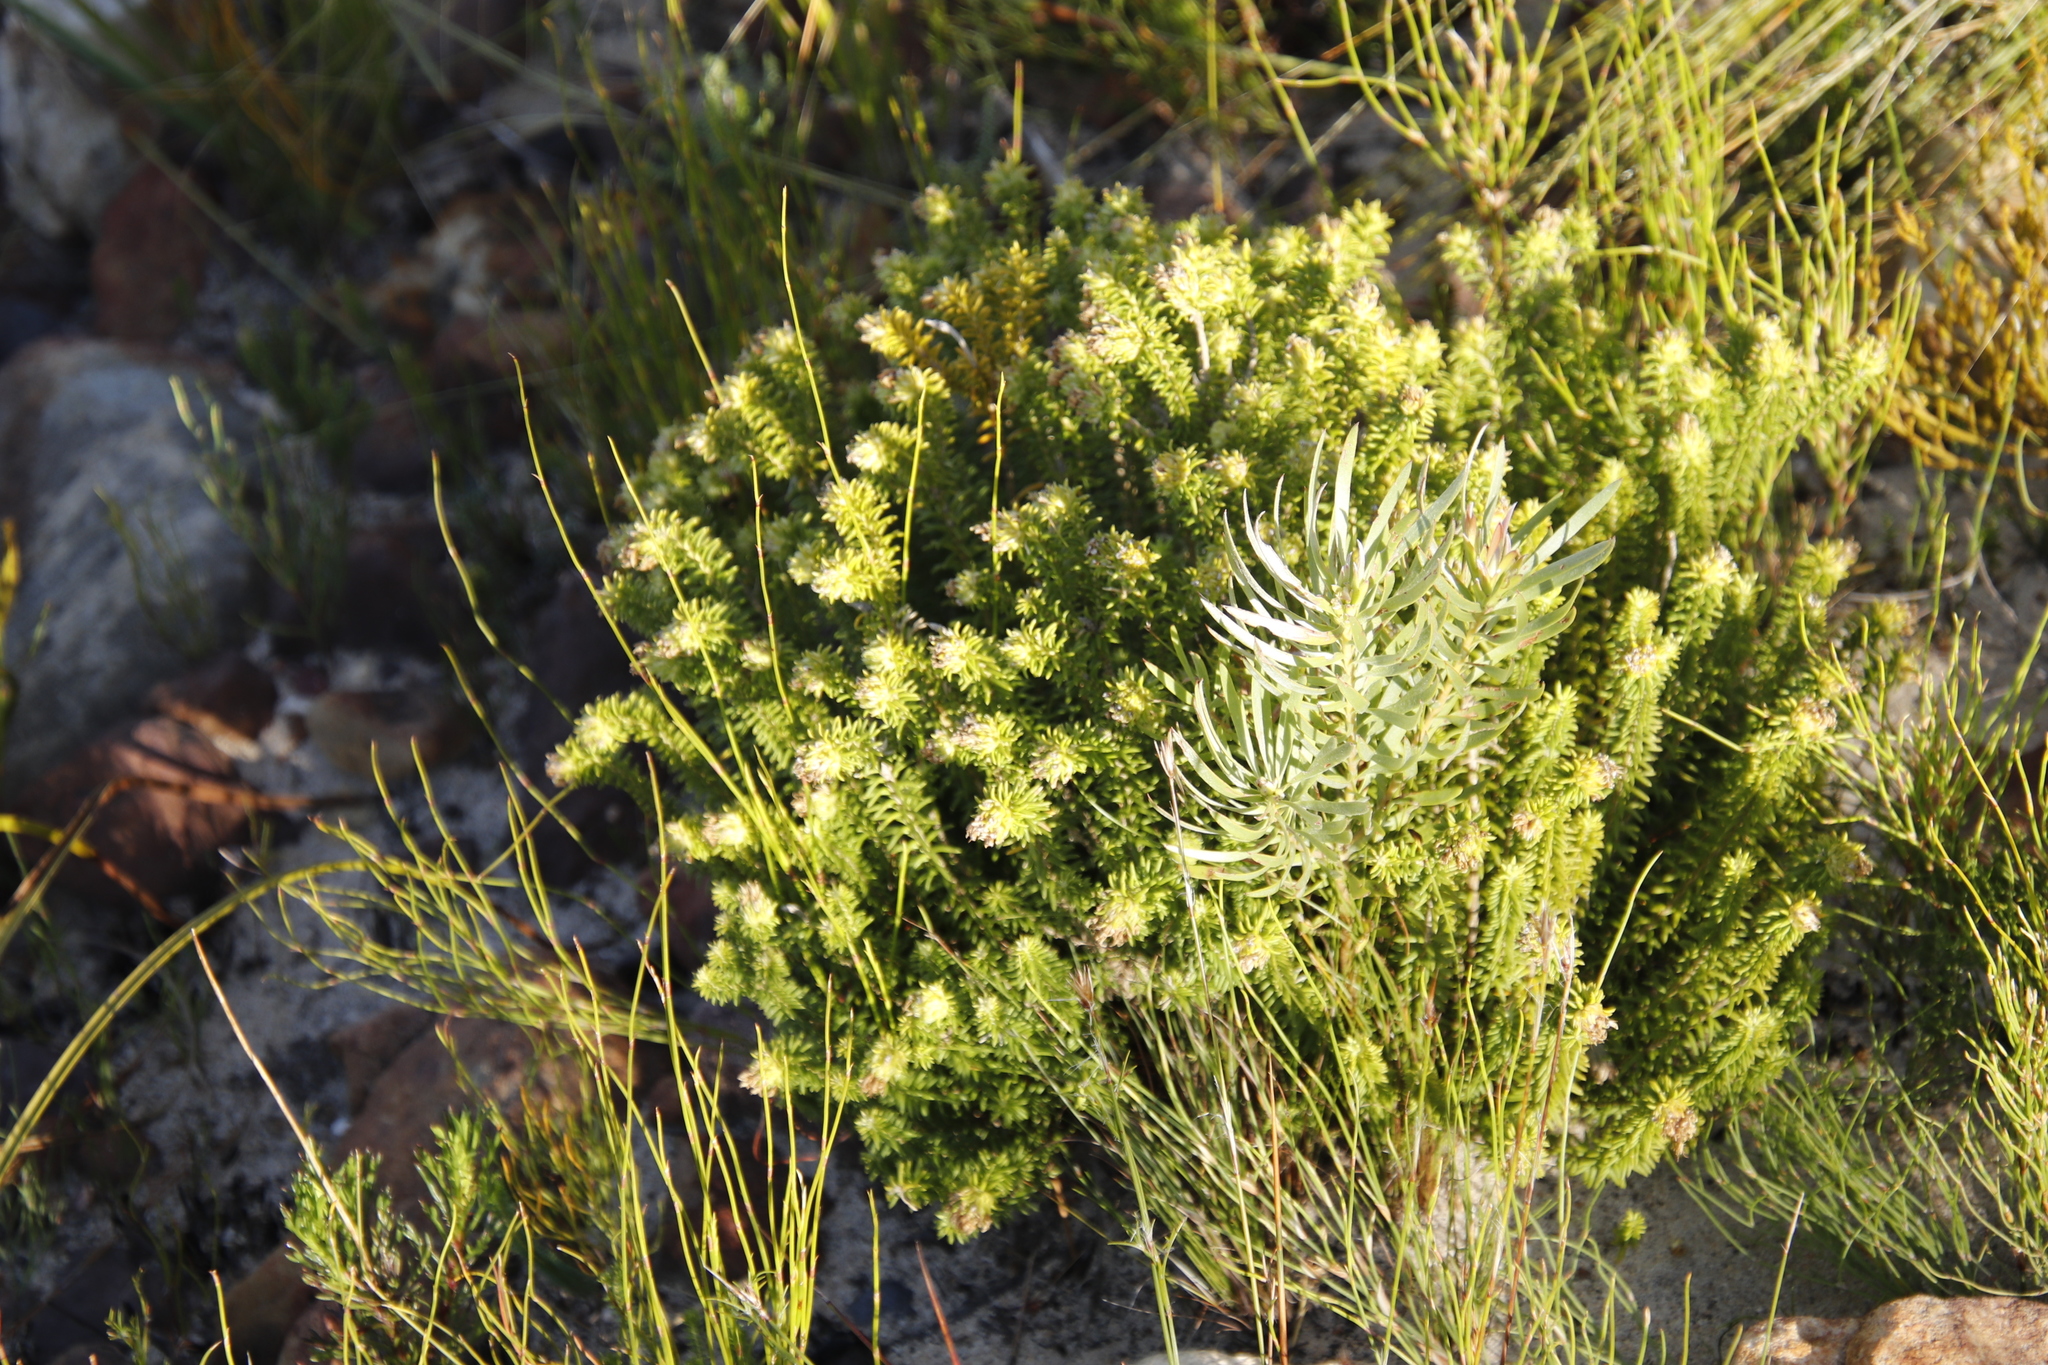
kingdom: Plantae
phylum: Tracheophyta
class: Magnoliopsida
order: Lamiales
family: Stilbaceae
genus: Campylostachys
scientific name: Campylostachys cernua
